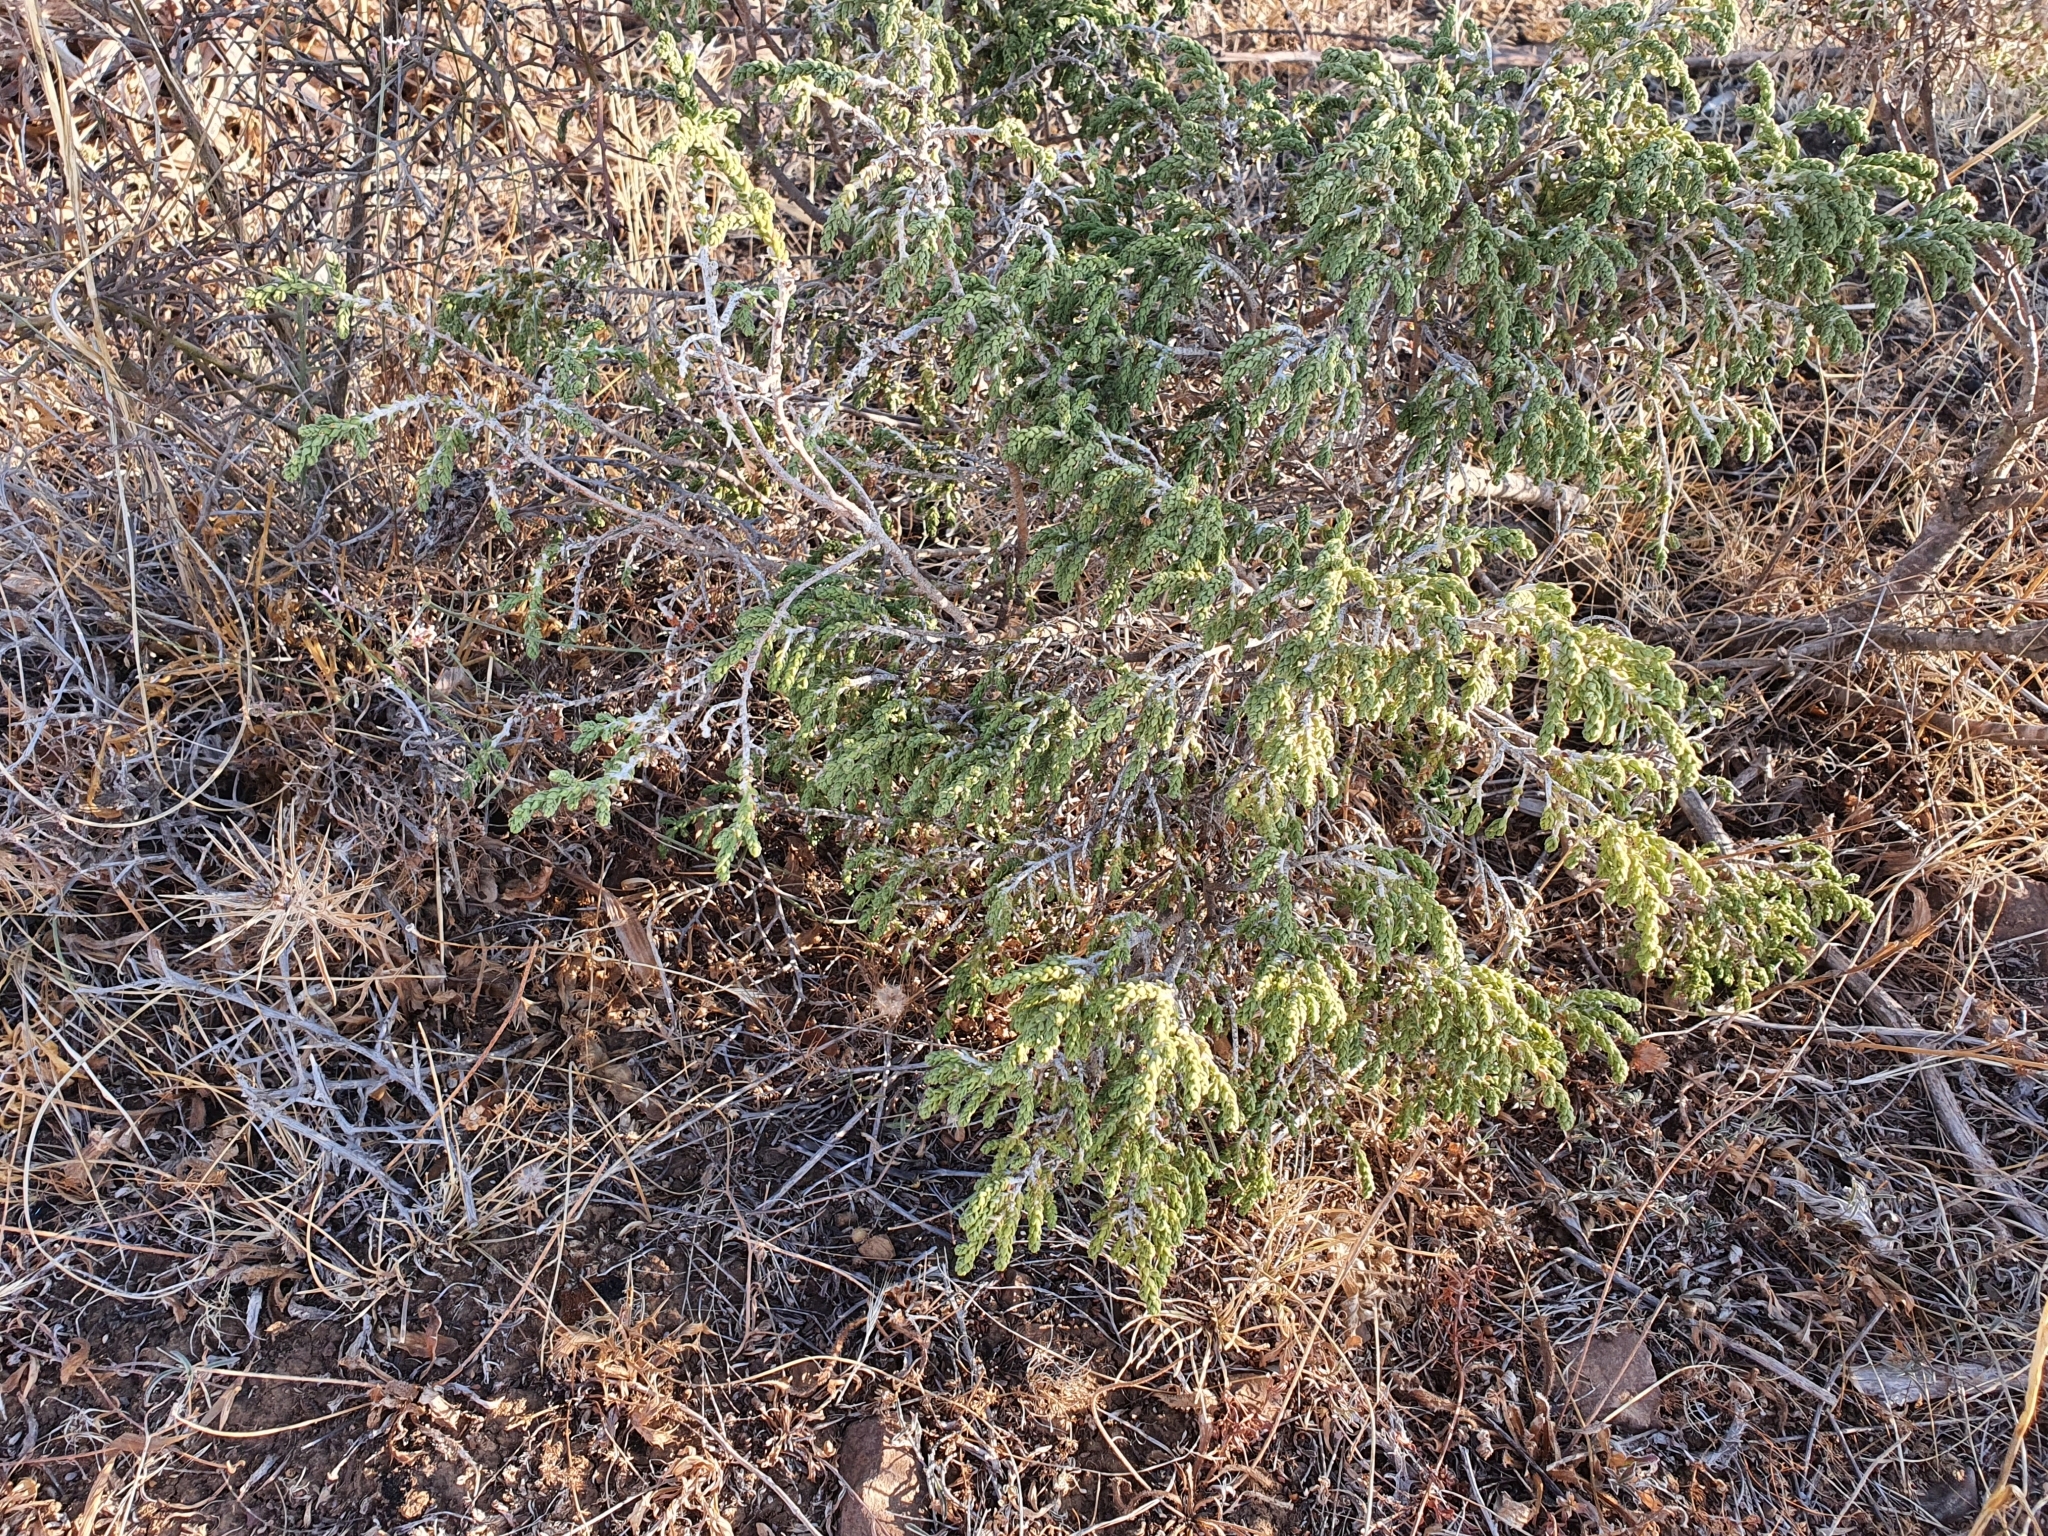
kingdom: Plantae
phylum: Tracheophyta
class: Magnoliopsida
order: Malvales
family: Thymelaeaceae
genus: Thymelaea
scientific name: Thymelaea hirsuta
